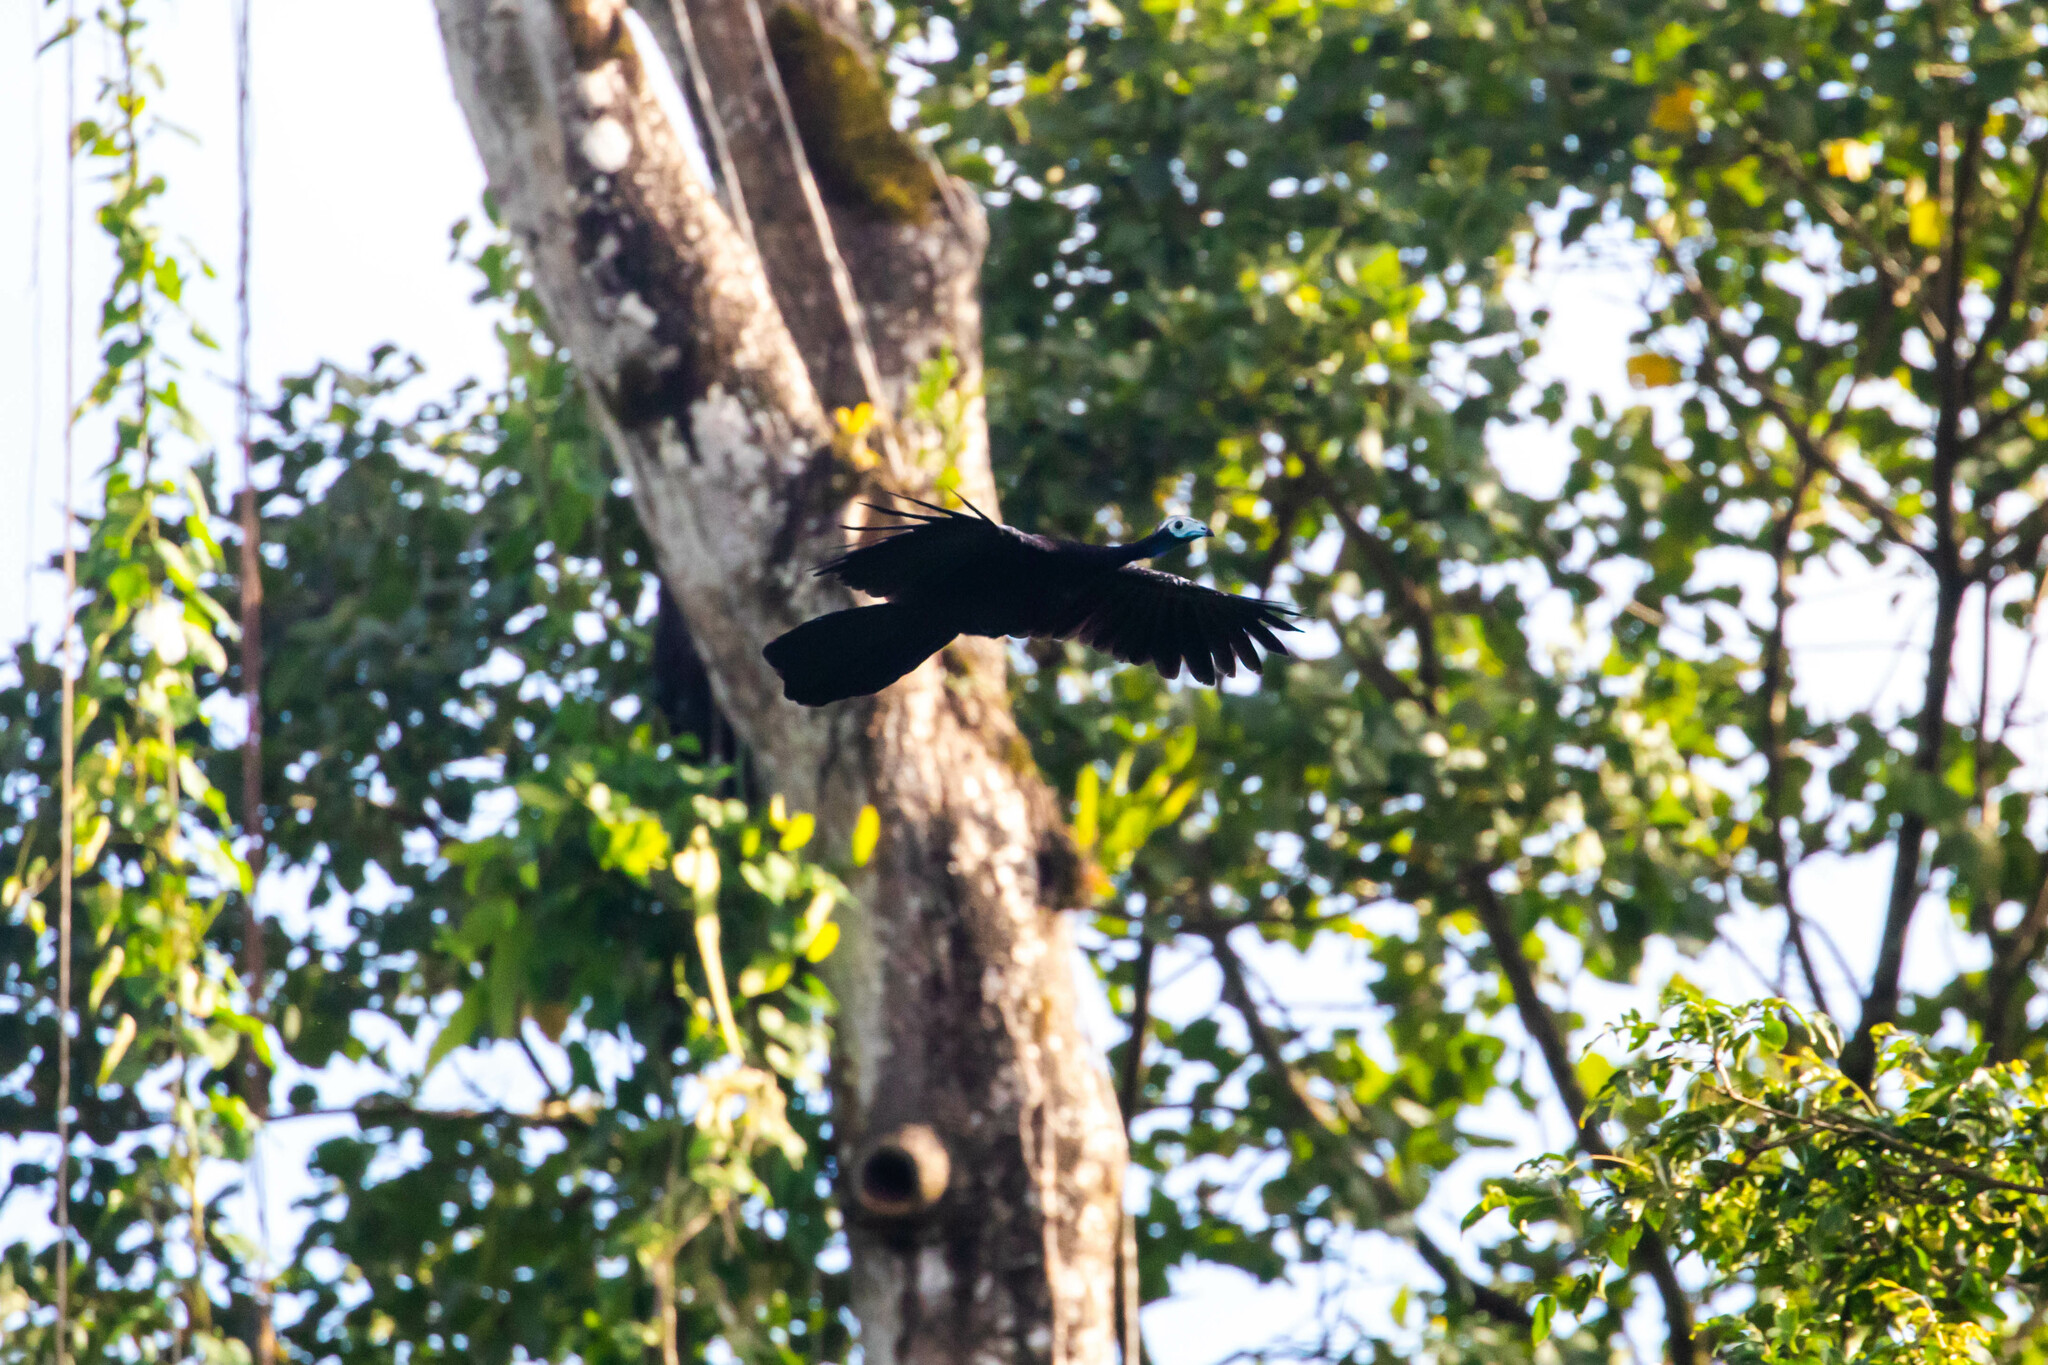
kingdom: Animalia
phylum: Chordata
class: Aves
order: Galliformes
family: Cracidae
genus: Pipile
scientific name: Pipile pipile
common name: Trinidad piping-guan
